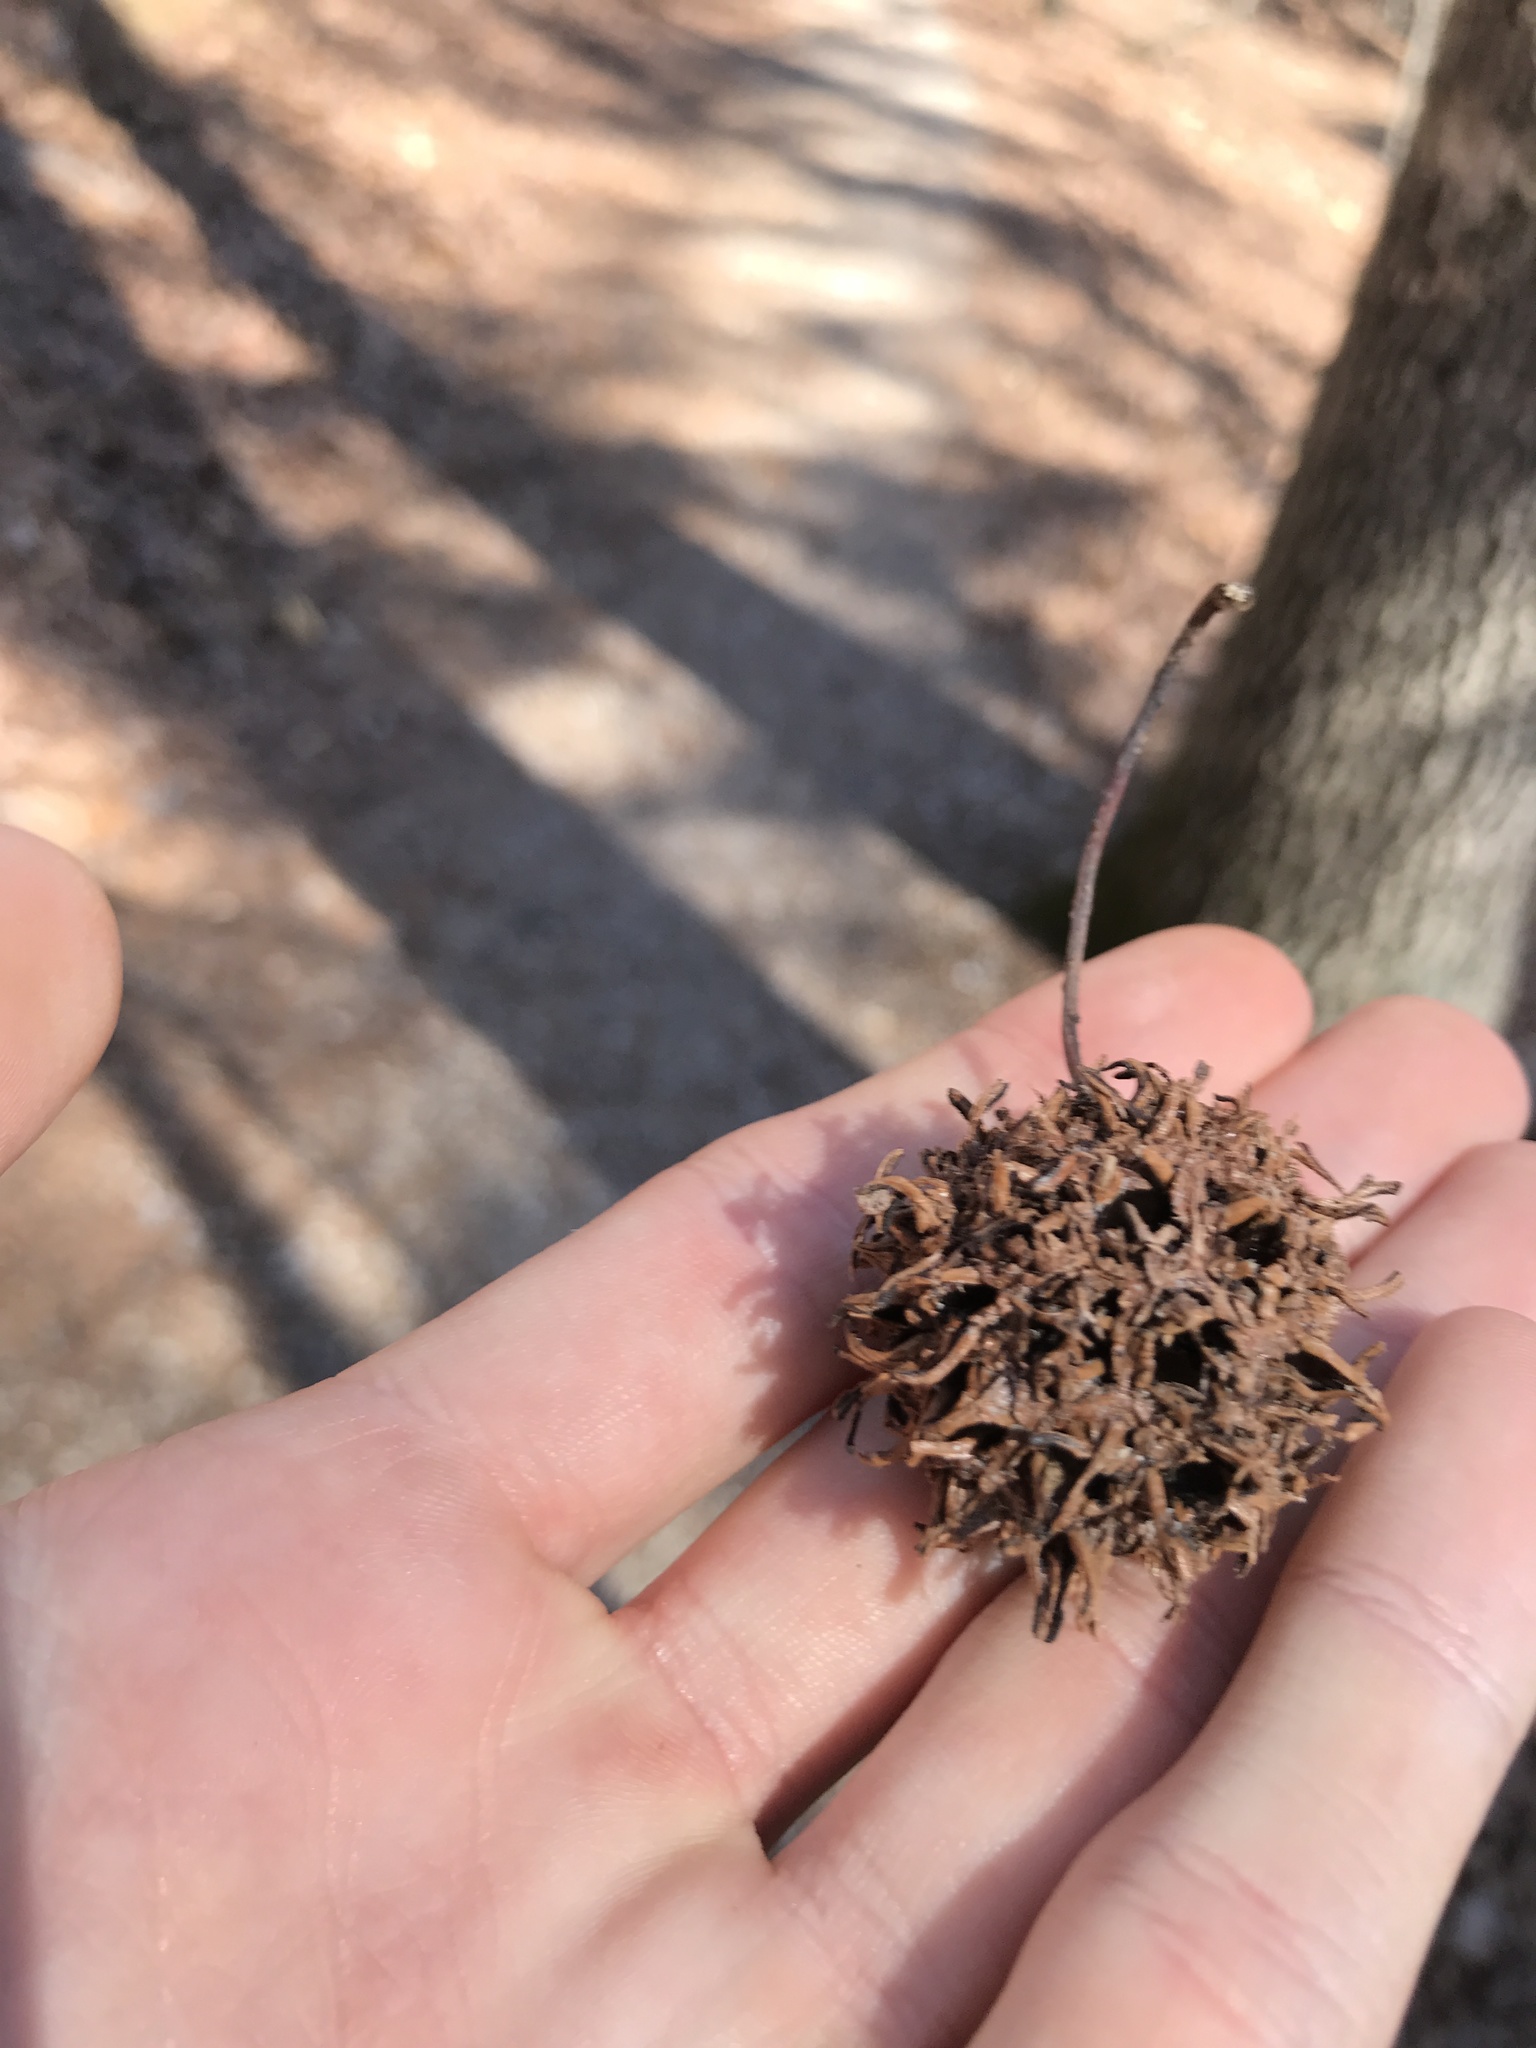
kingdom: Plantae
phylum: Tracheophyta
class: Magnoliopsida
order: Saxifragales
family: Altingiaceae
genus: Liquidambar
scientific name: Liquidambar styraciflua
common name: Sweet gum
